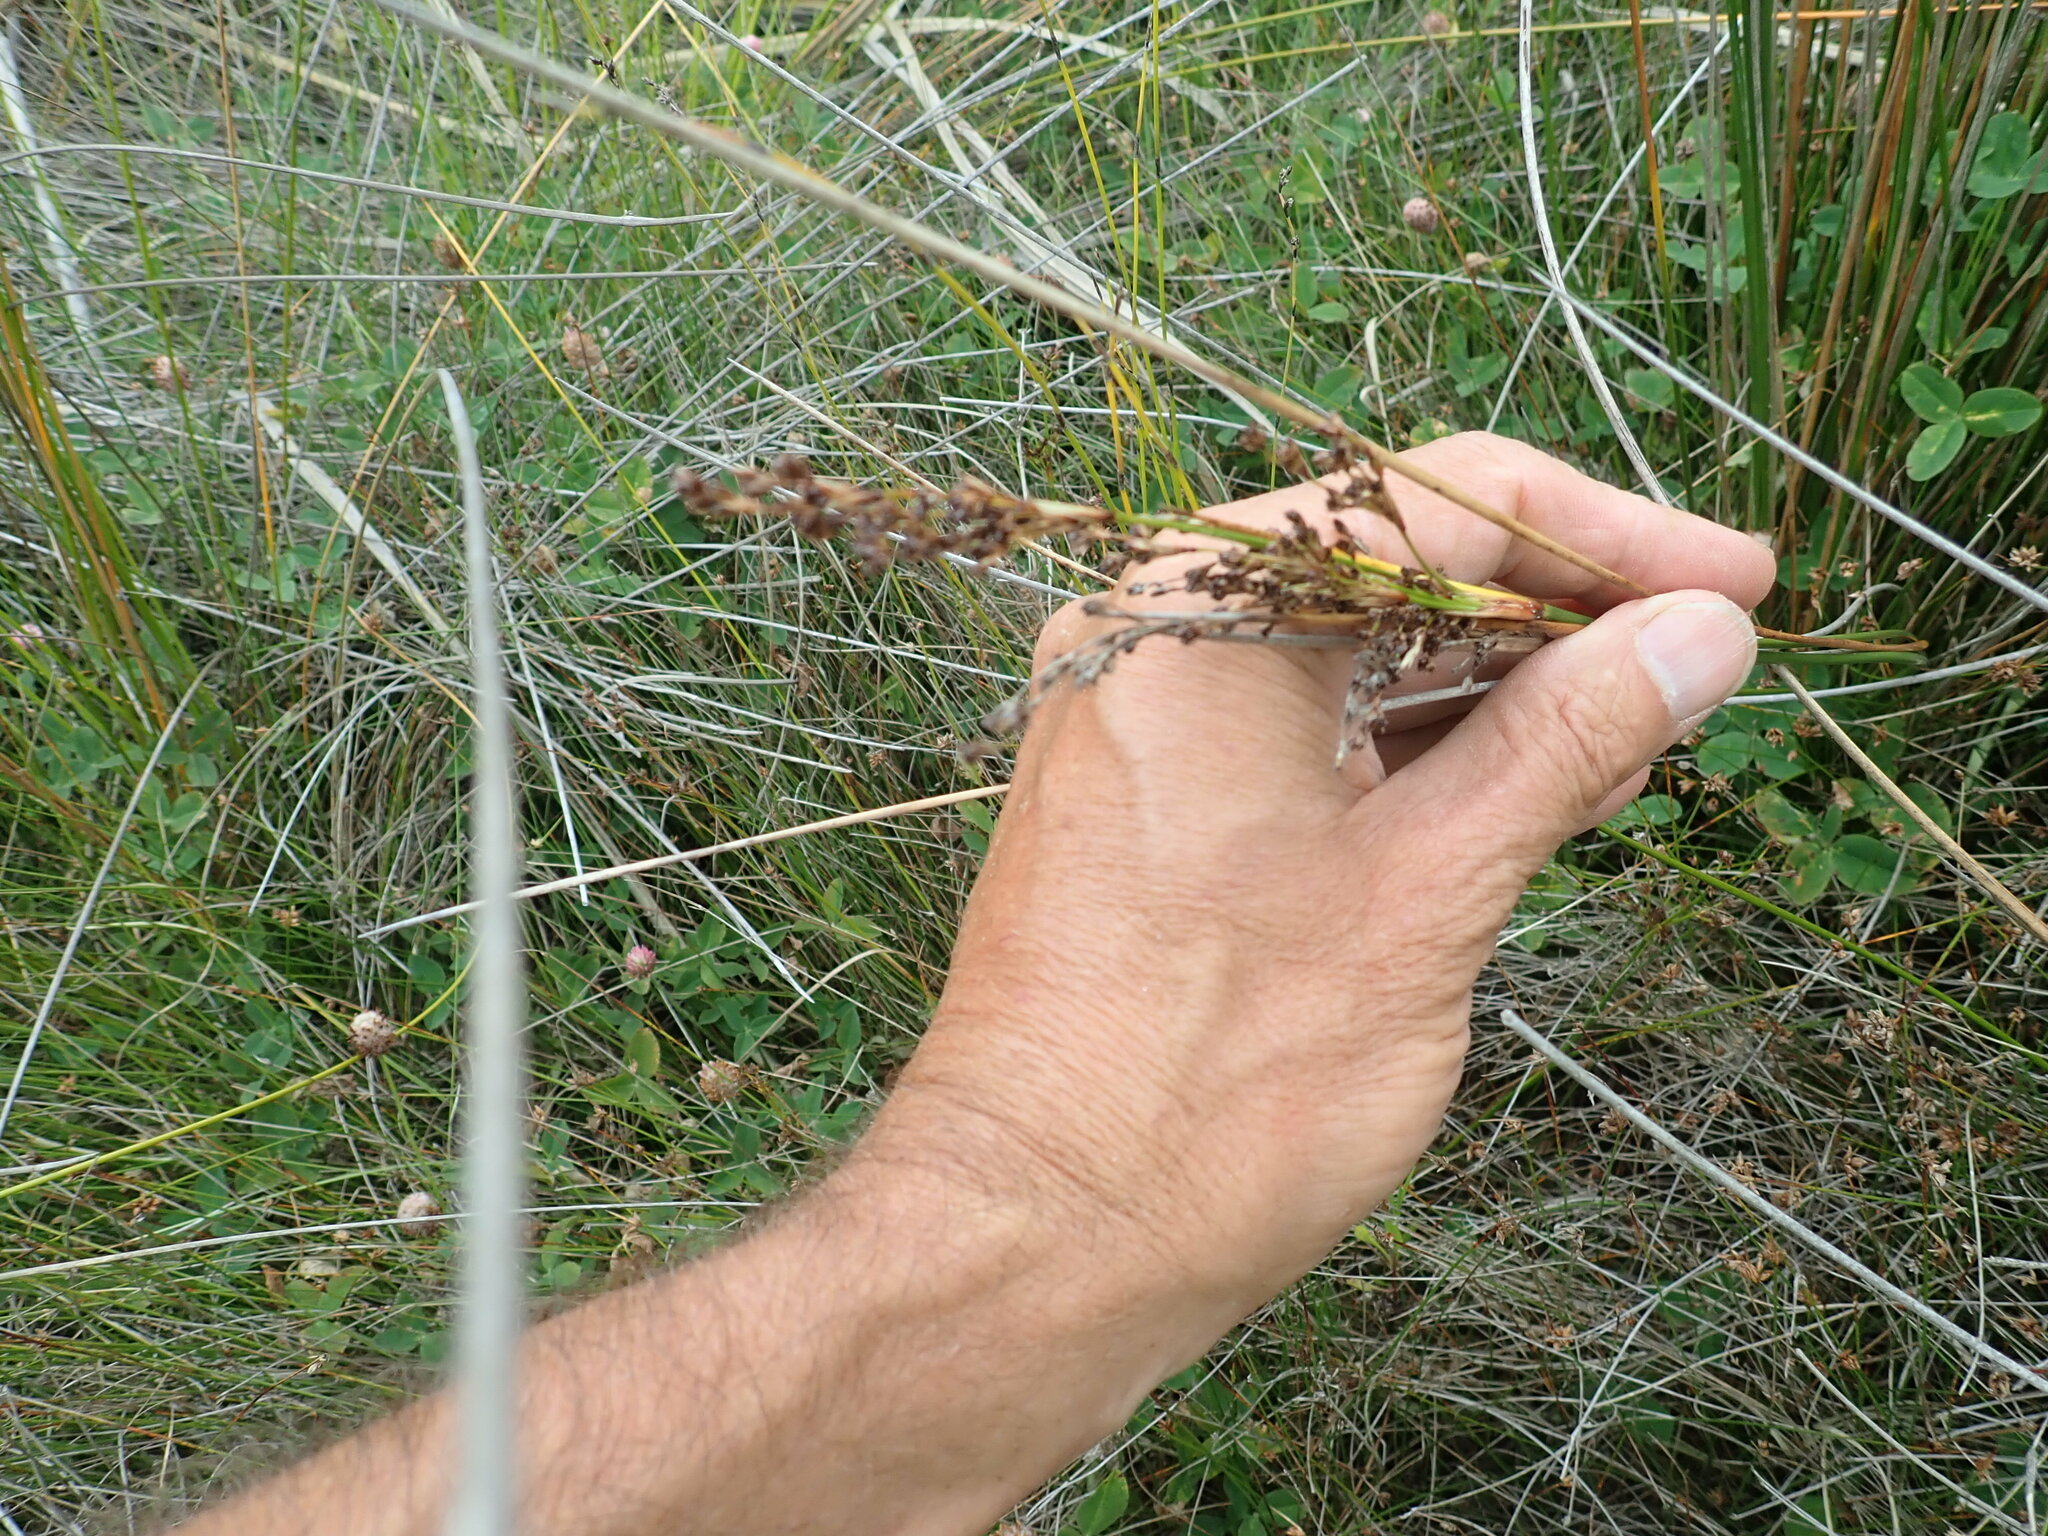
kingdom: Plantae
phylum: Tracheophyta
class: Liliopsida
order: Poales
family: Juncaceae
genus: Juncus
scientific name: Juncus kraussii
